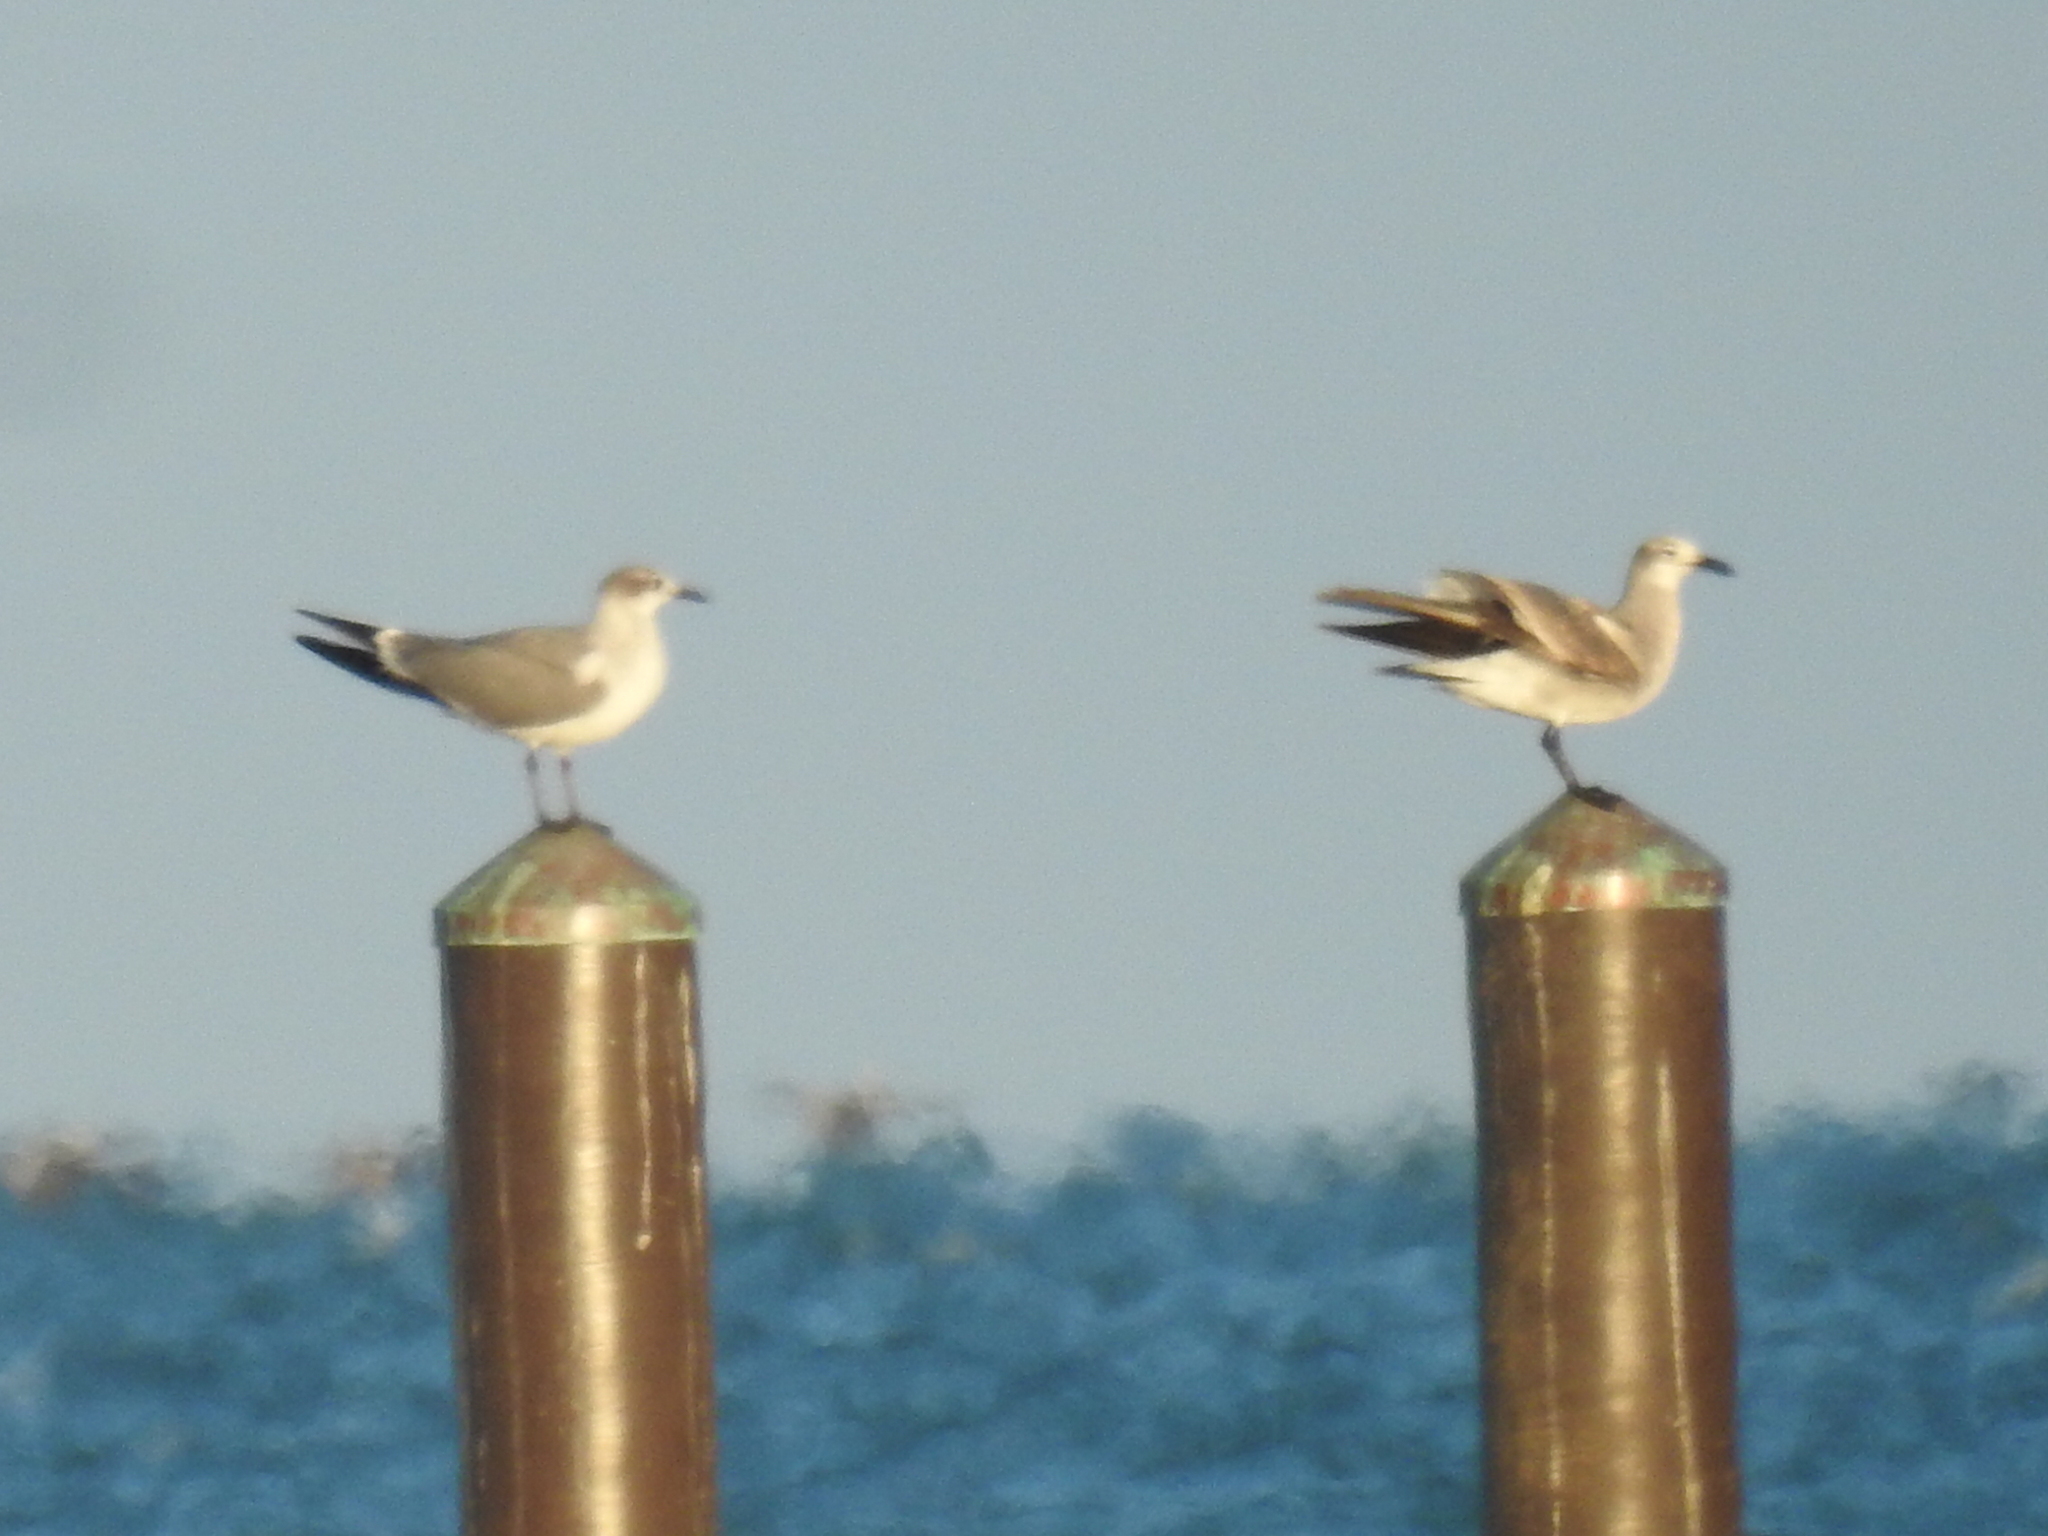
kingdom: Animalia
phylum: Chordata
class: Aves
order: Charadriiformes
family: Laridae
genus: Leucophaeus
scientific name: Leucophaeus atricilla
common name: Laughing gull
